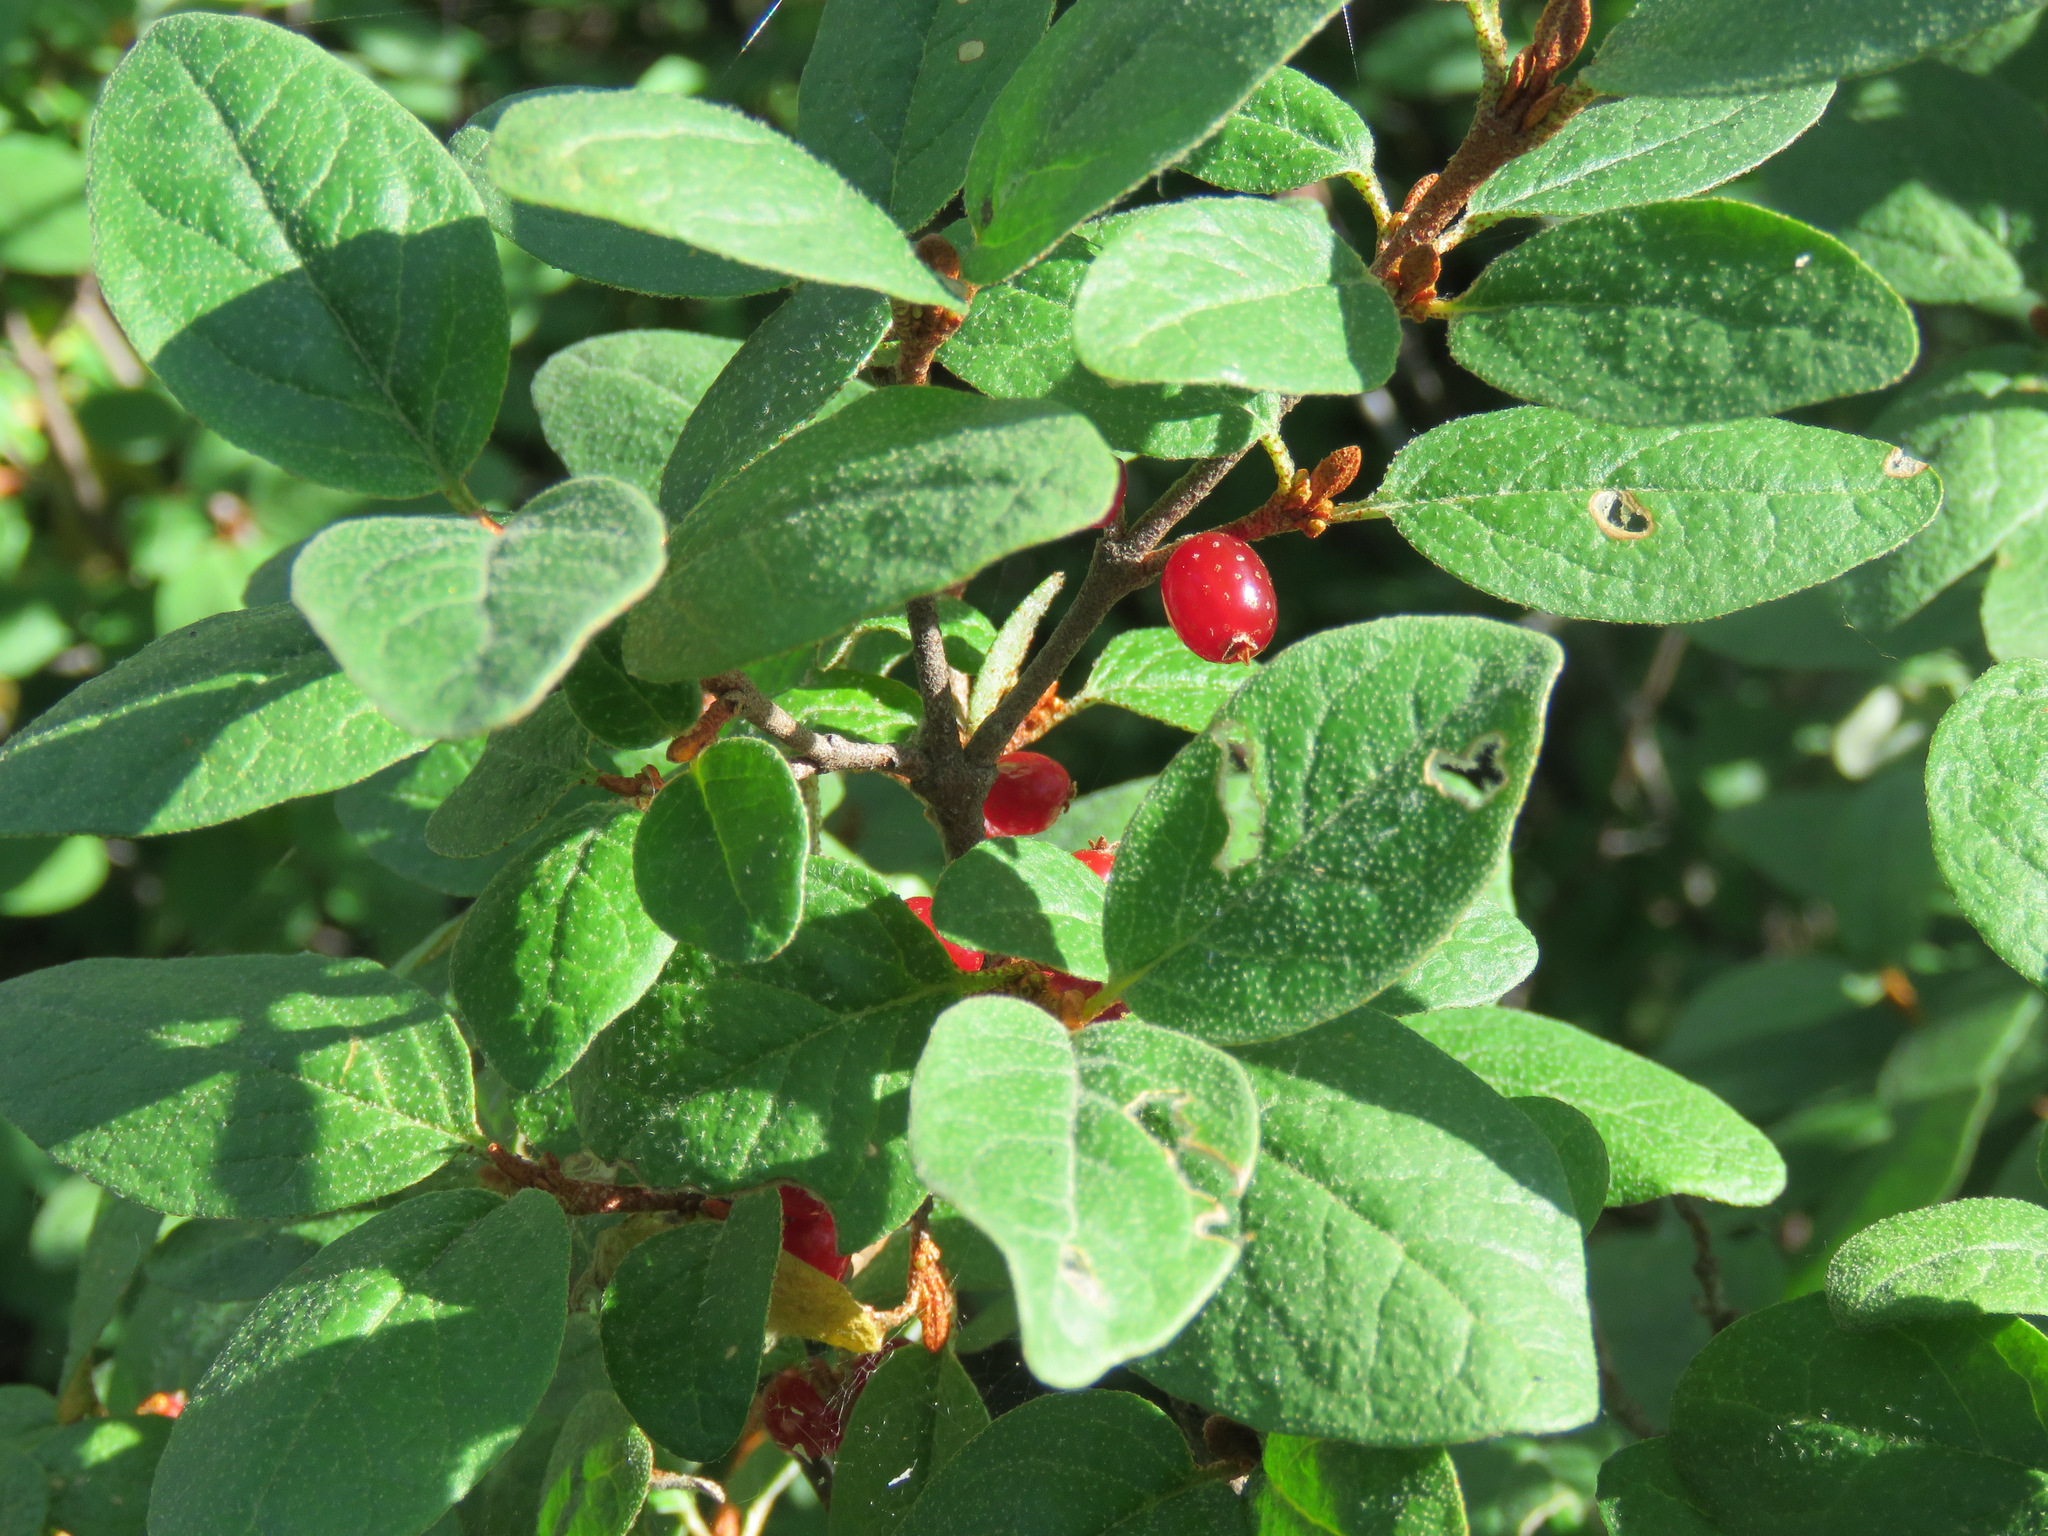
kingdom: Plantae
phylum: Tracheophyta
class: Magnoliopsida
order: Rosales
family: Elaeagnaceae
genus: Shepherdia
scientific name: Shepherdia canadensis
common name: Soapberry
